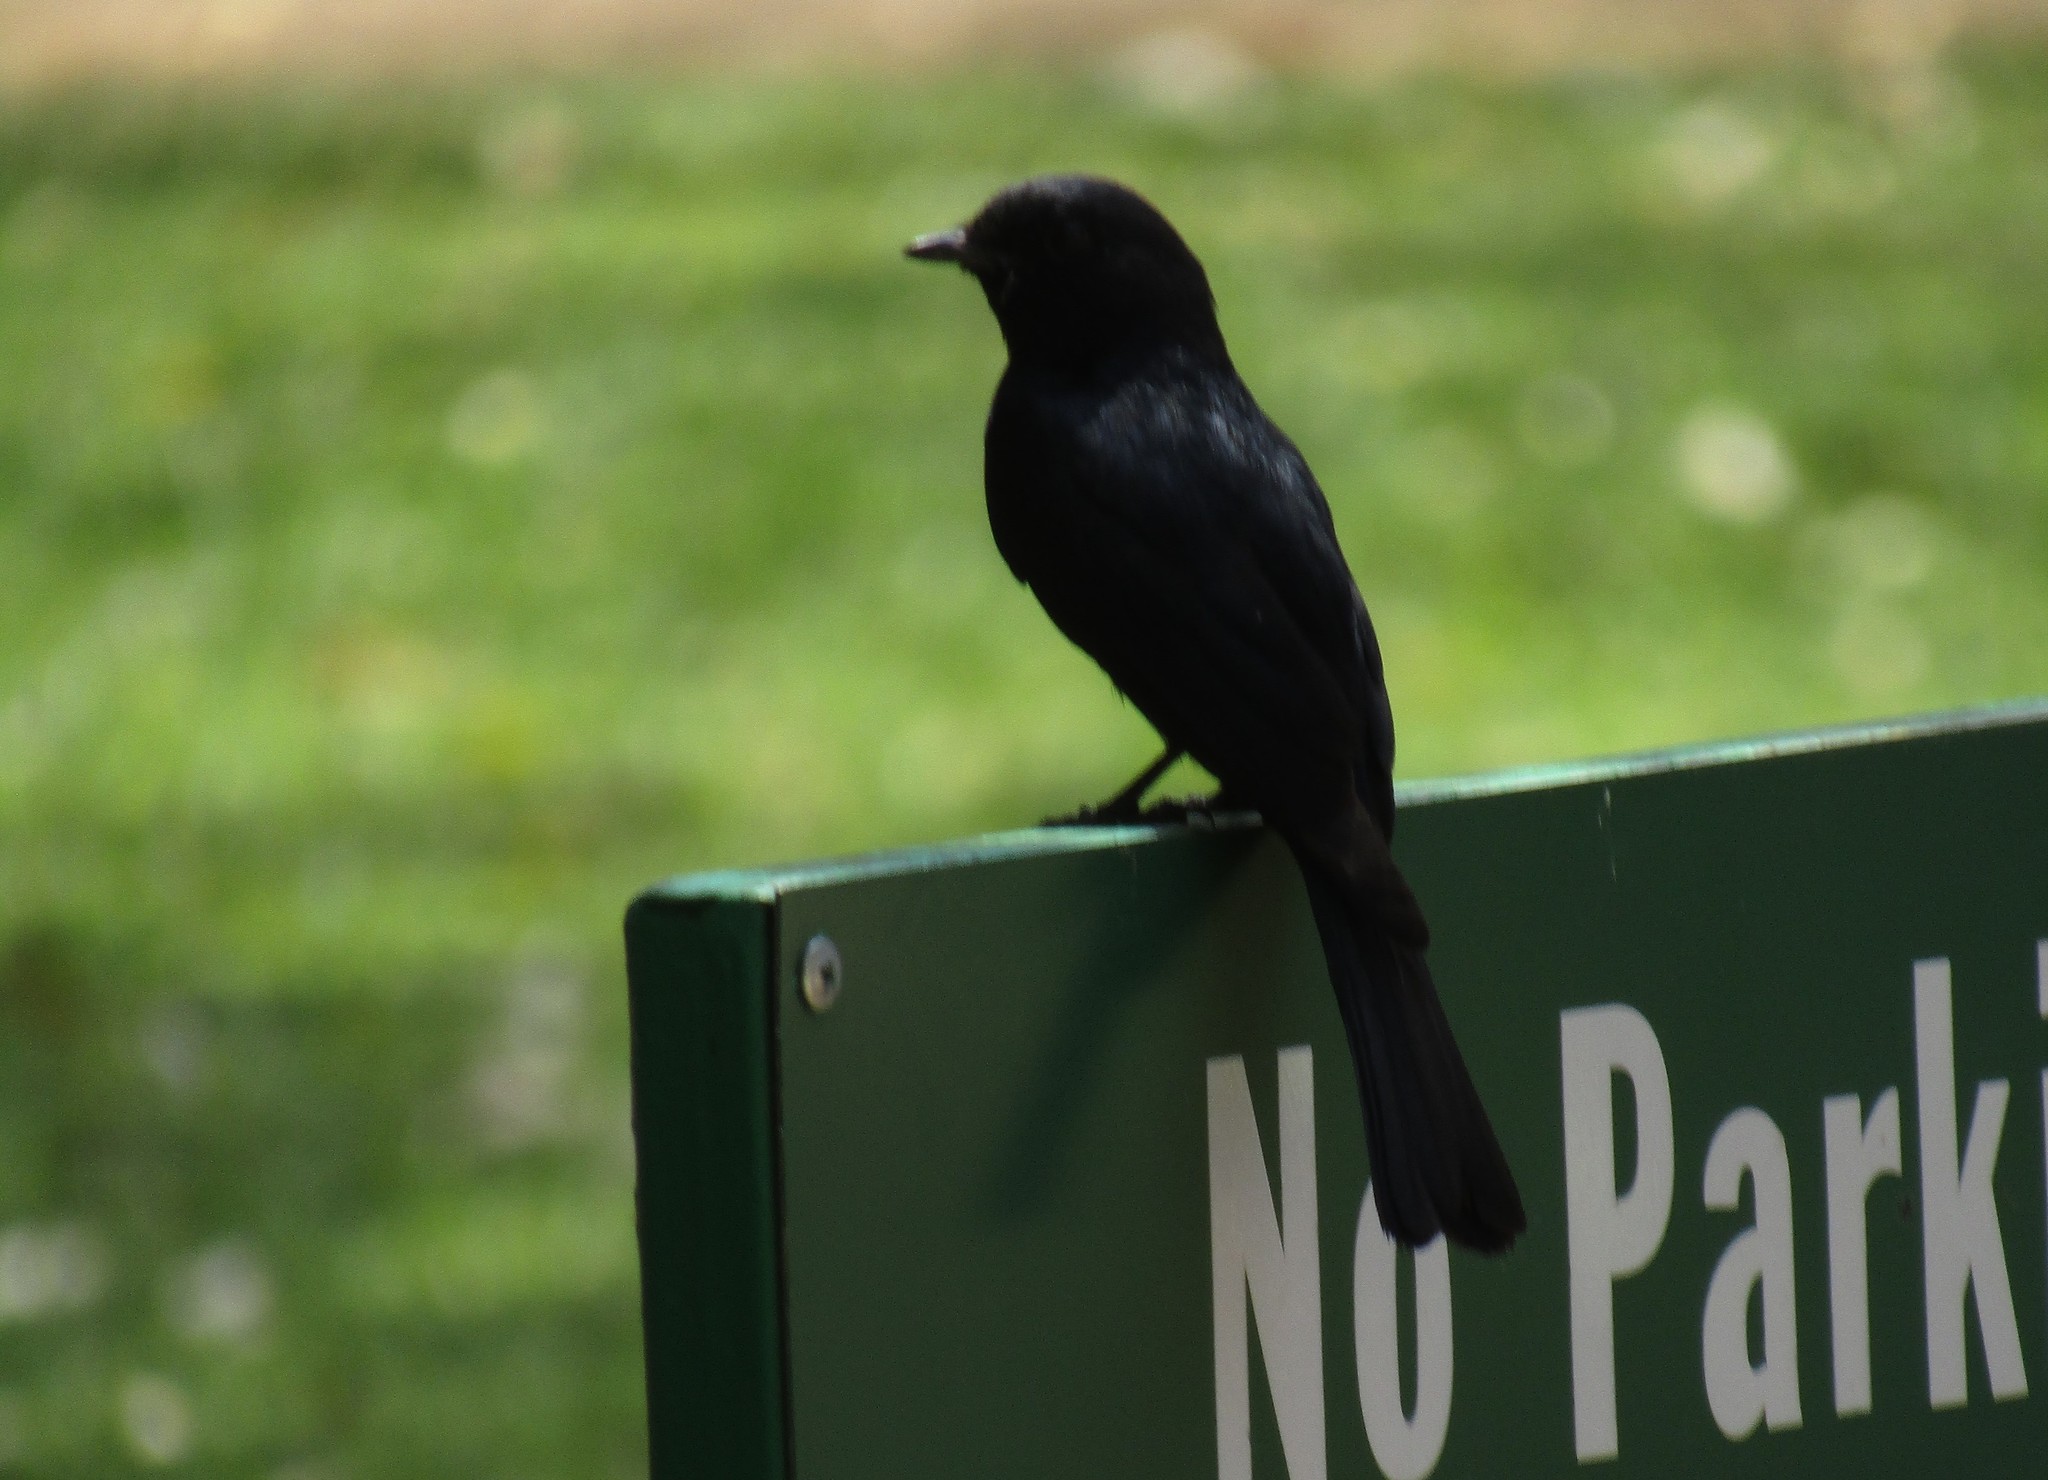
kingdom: Animalia
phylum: Chordata
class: Aves
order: Passeriformes
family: Muscicapidae
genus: Melaenornis
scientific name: Melaenornis pammelaina
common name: Southern black flycatcher
